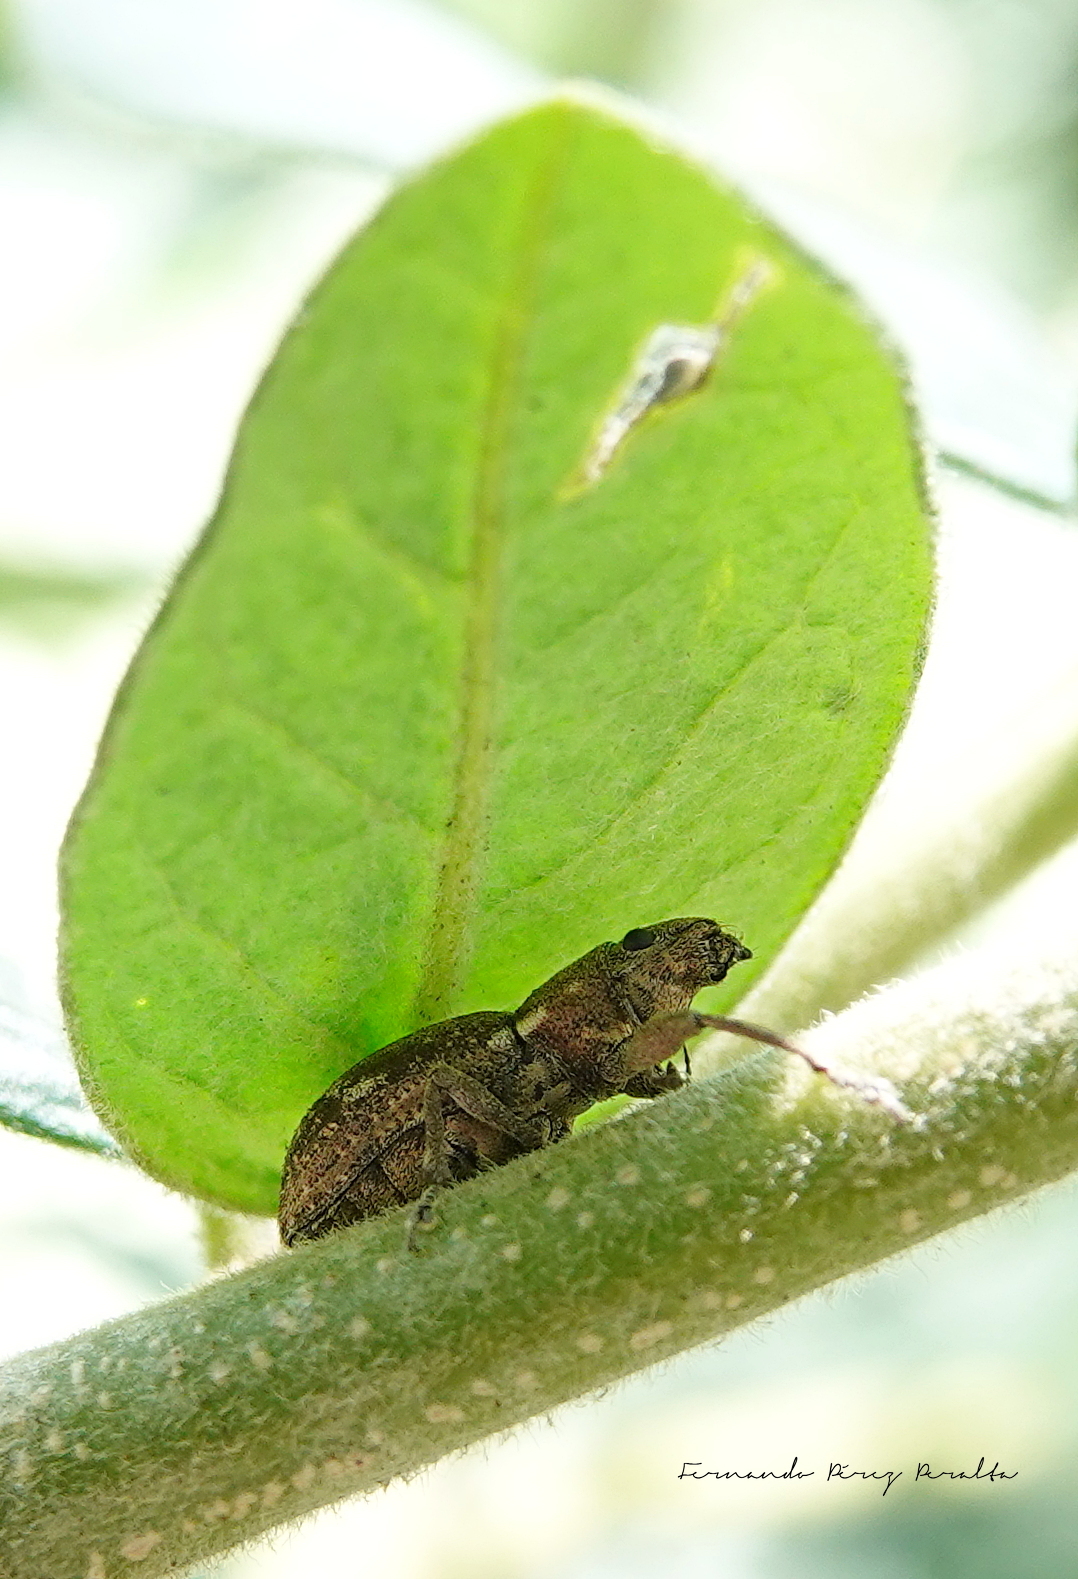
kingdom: Animalia
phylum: Arthropoda
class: Insecta
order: Coleoptera
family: Curculionidae
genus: Naupactus
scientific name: Naupactus cervinus
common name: Fuller rose beetle
